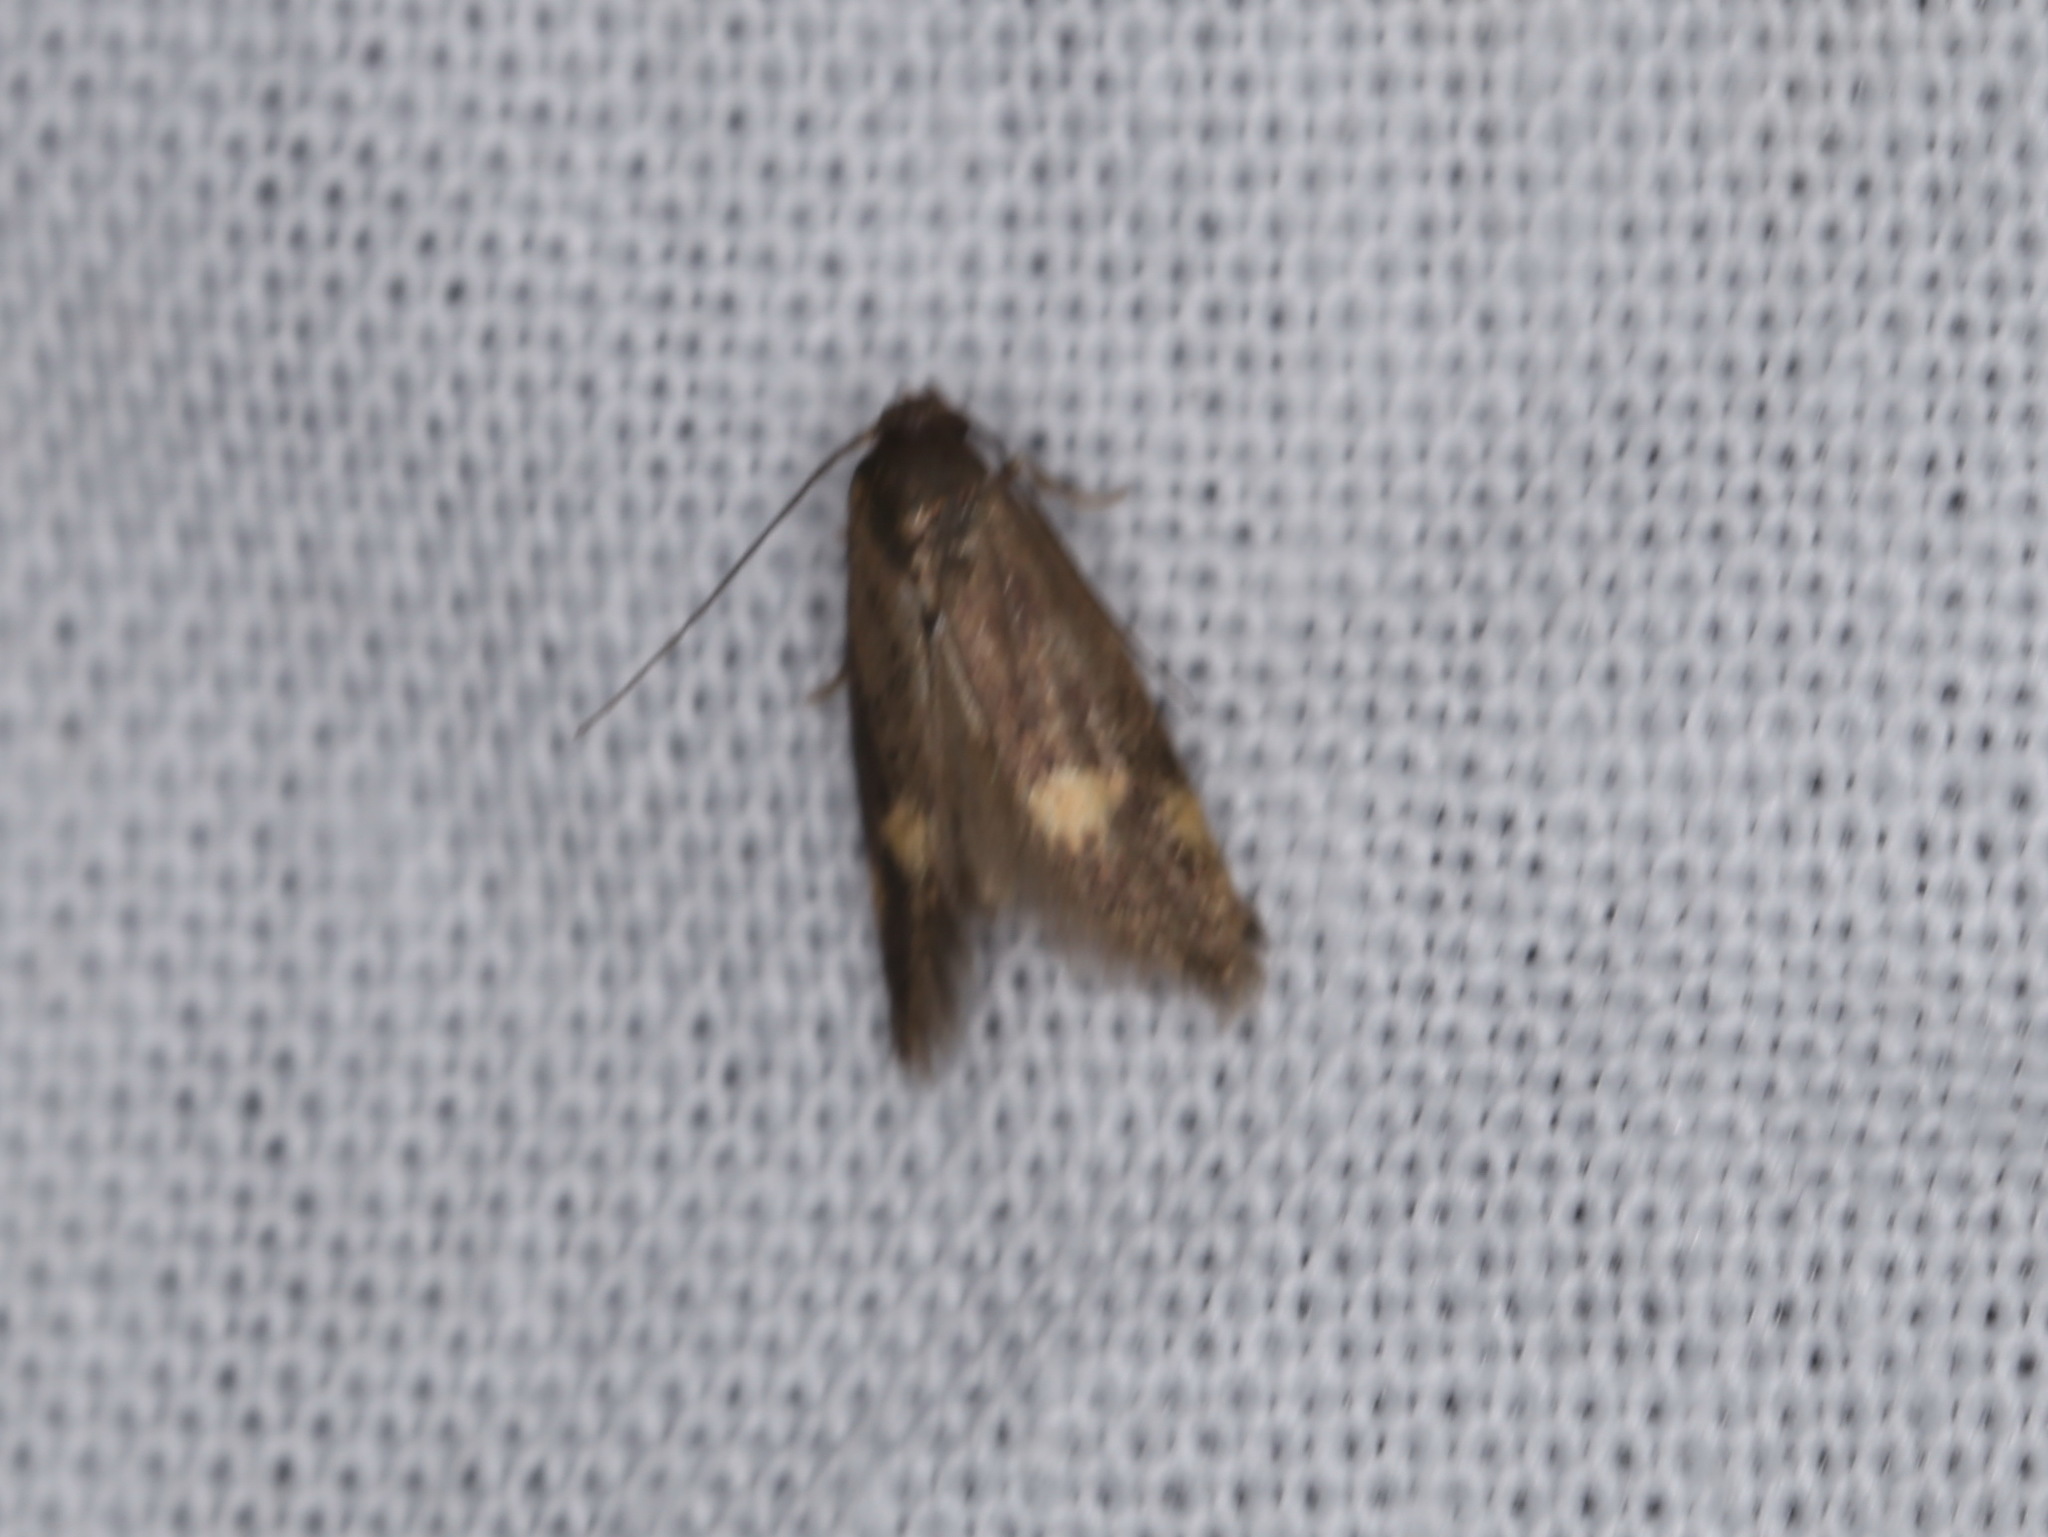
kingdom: Animalia
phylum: Arthropoda
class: Insecta
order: Lepidoptera
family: Oecophoridae
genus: Borkhausenia
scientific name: Borkhausenia minutella
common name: Thatch tubic
